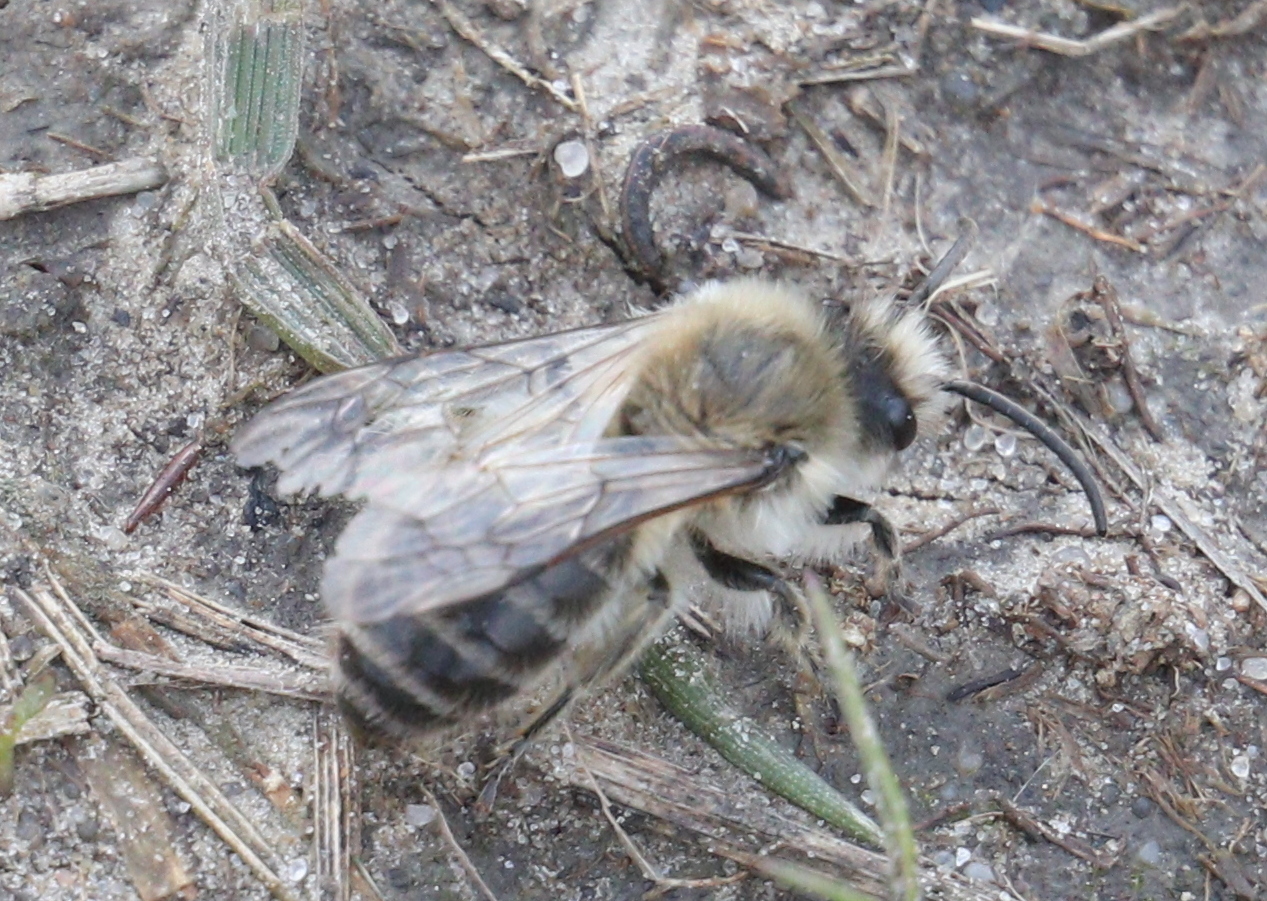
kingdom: Animalia
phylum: Arthropoda
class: Insecta
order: Hymenoptera
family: Colletidae
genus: Colletes
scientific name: Colletes cunicularius
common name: Early colletes
